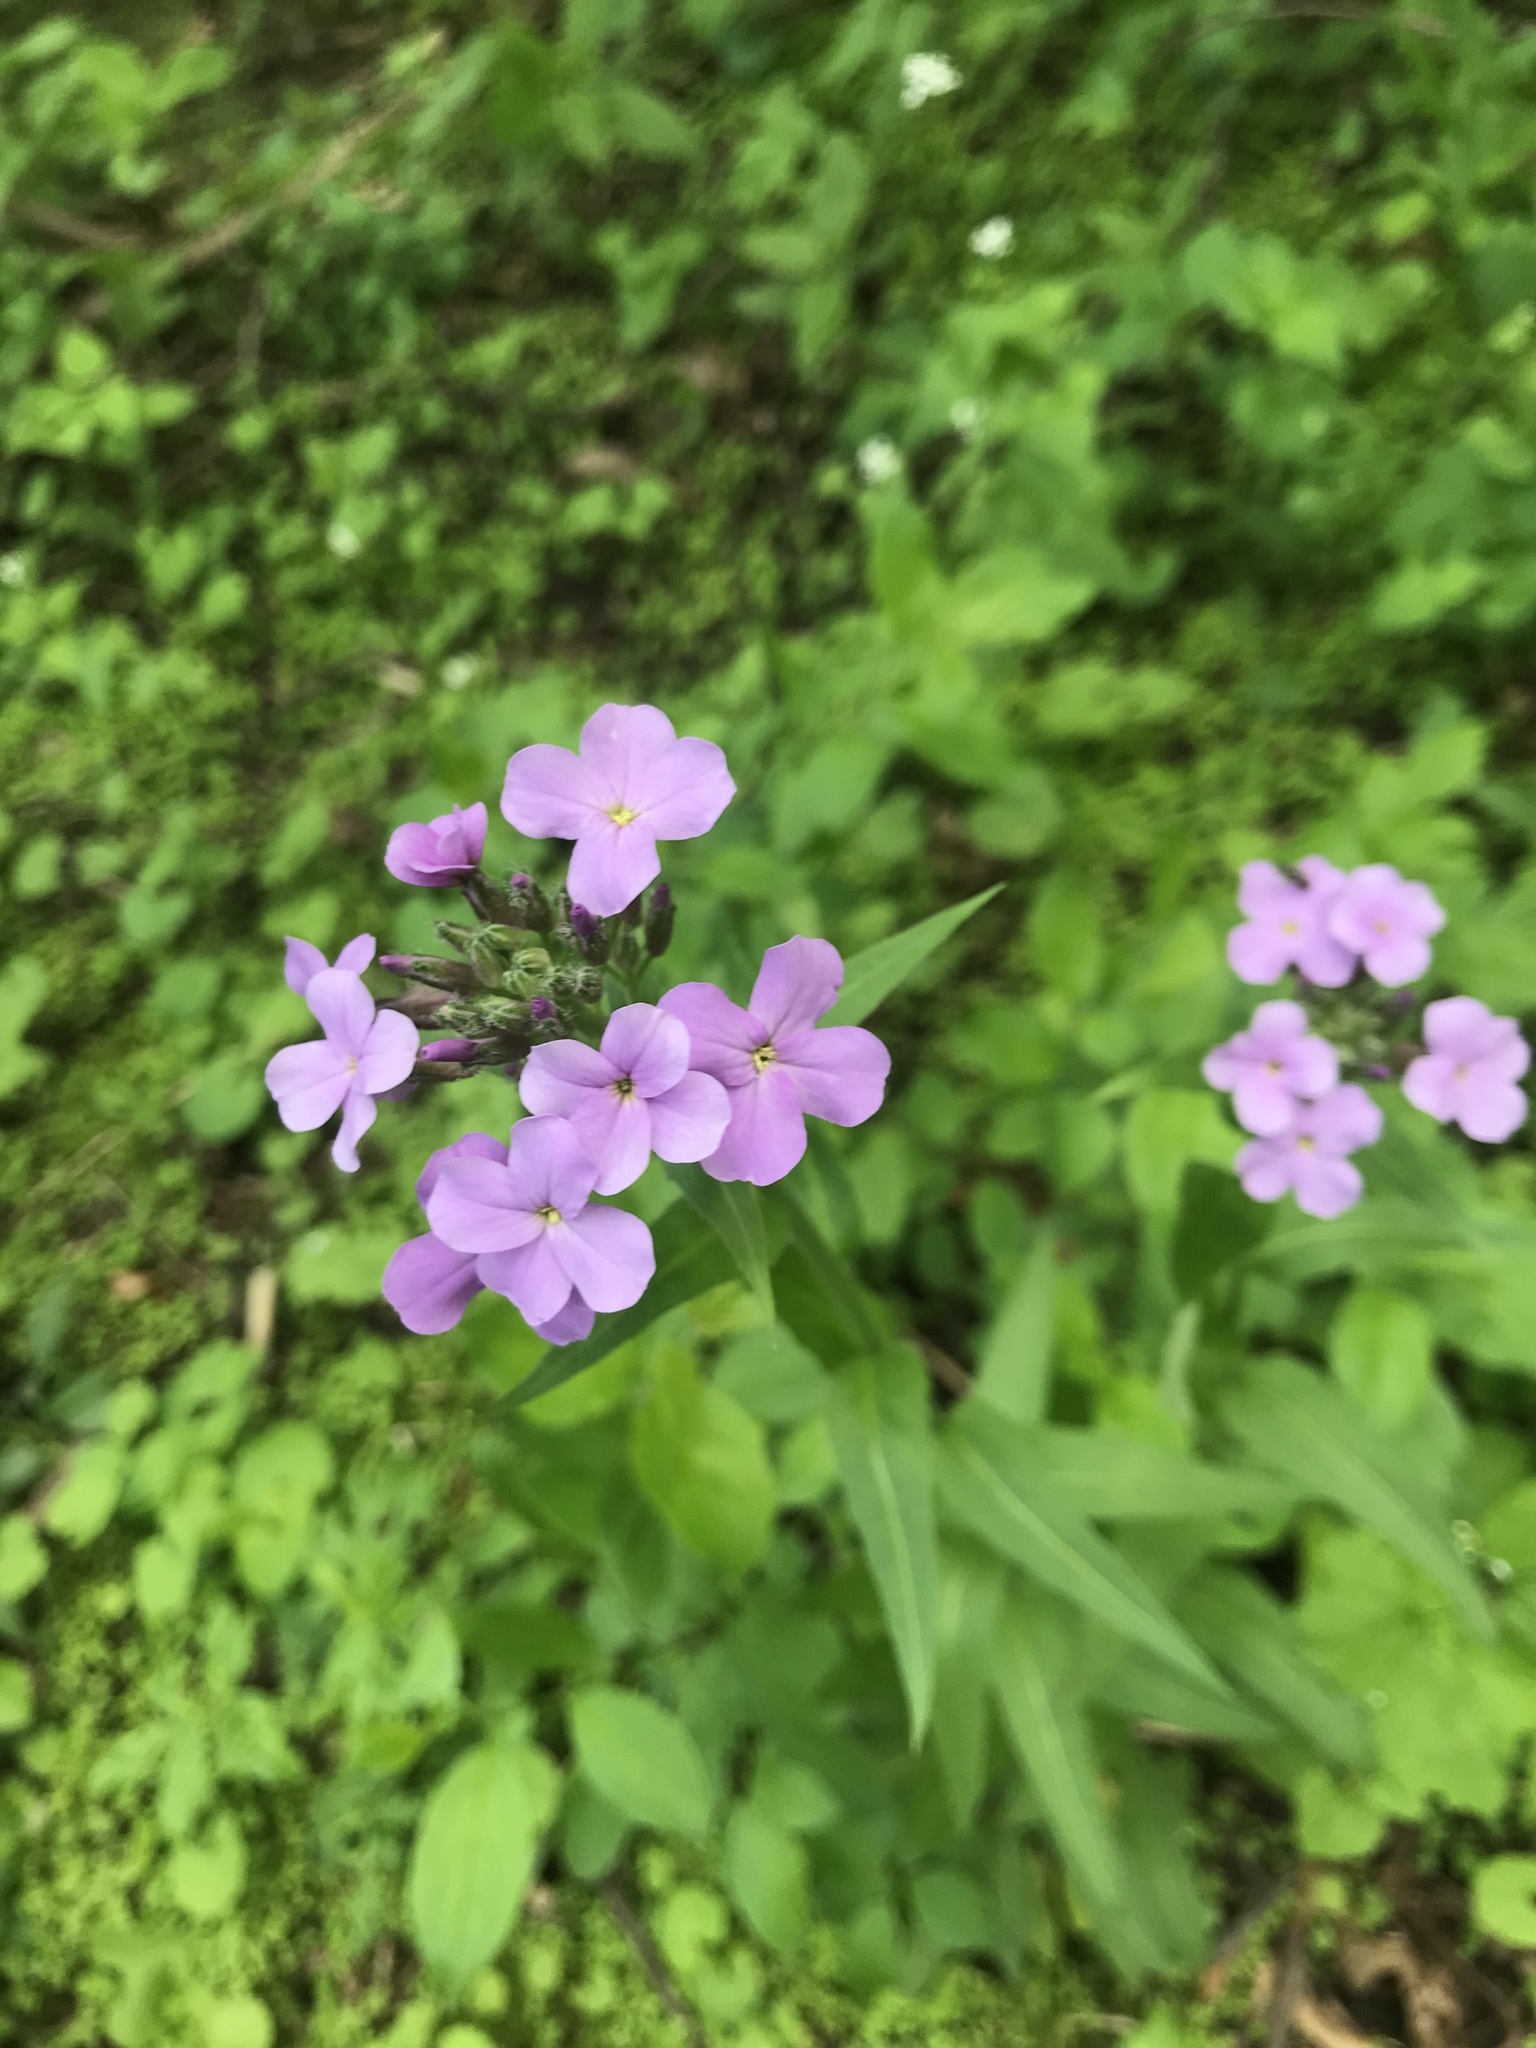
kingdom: Plantae
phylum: Tracheophyta
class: Magnoliopsida
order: Brassicales
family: Brassicaceae
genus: Hesperis
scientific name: Hesperis matronalis
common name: Dame's-violet
